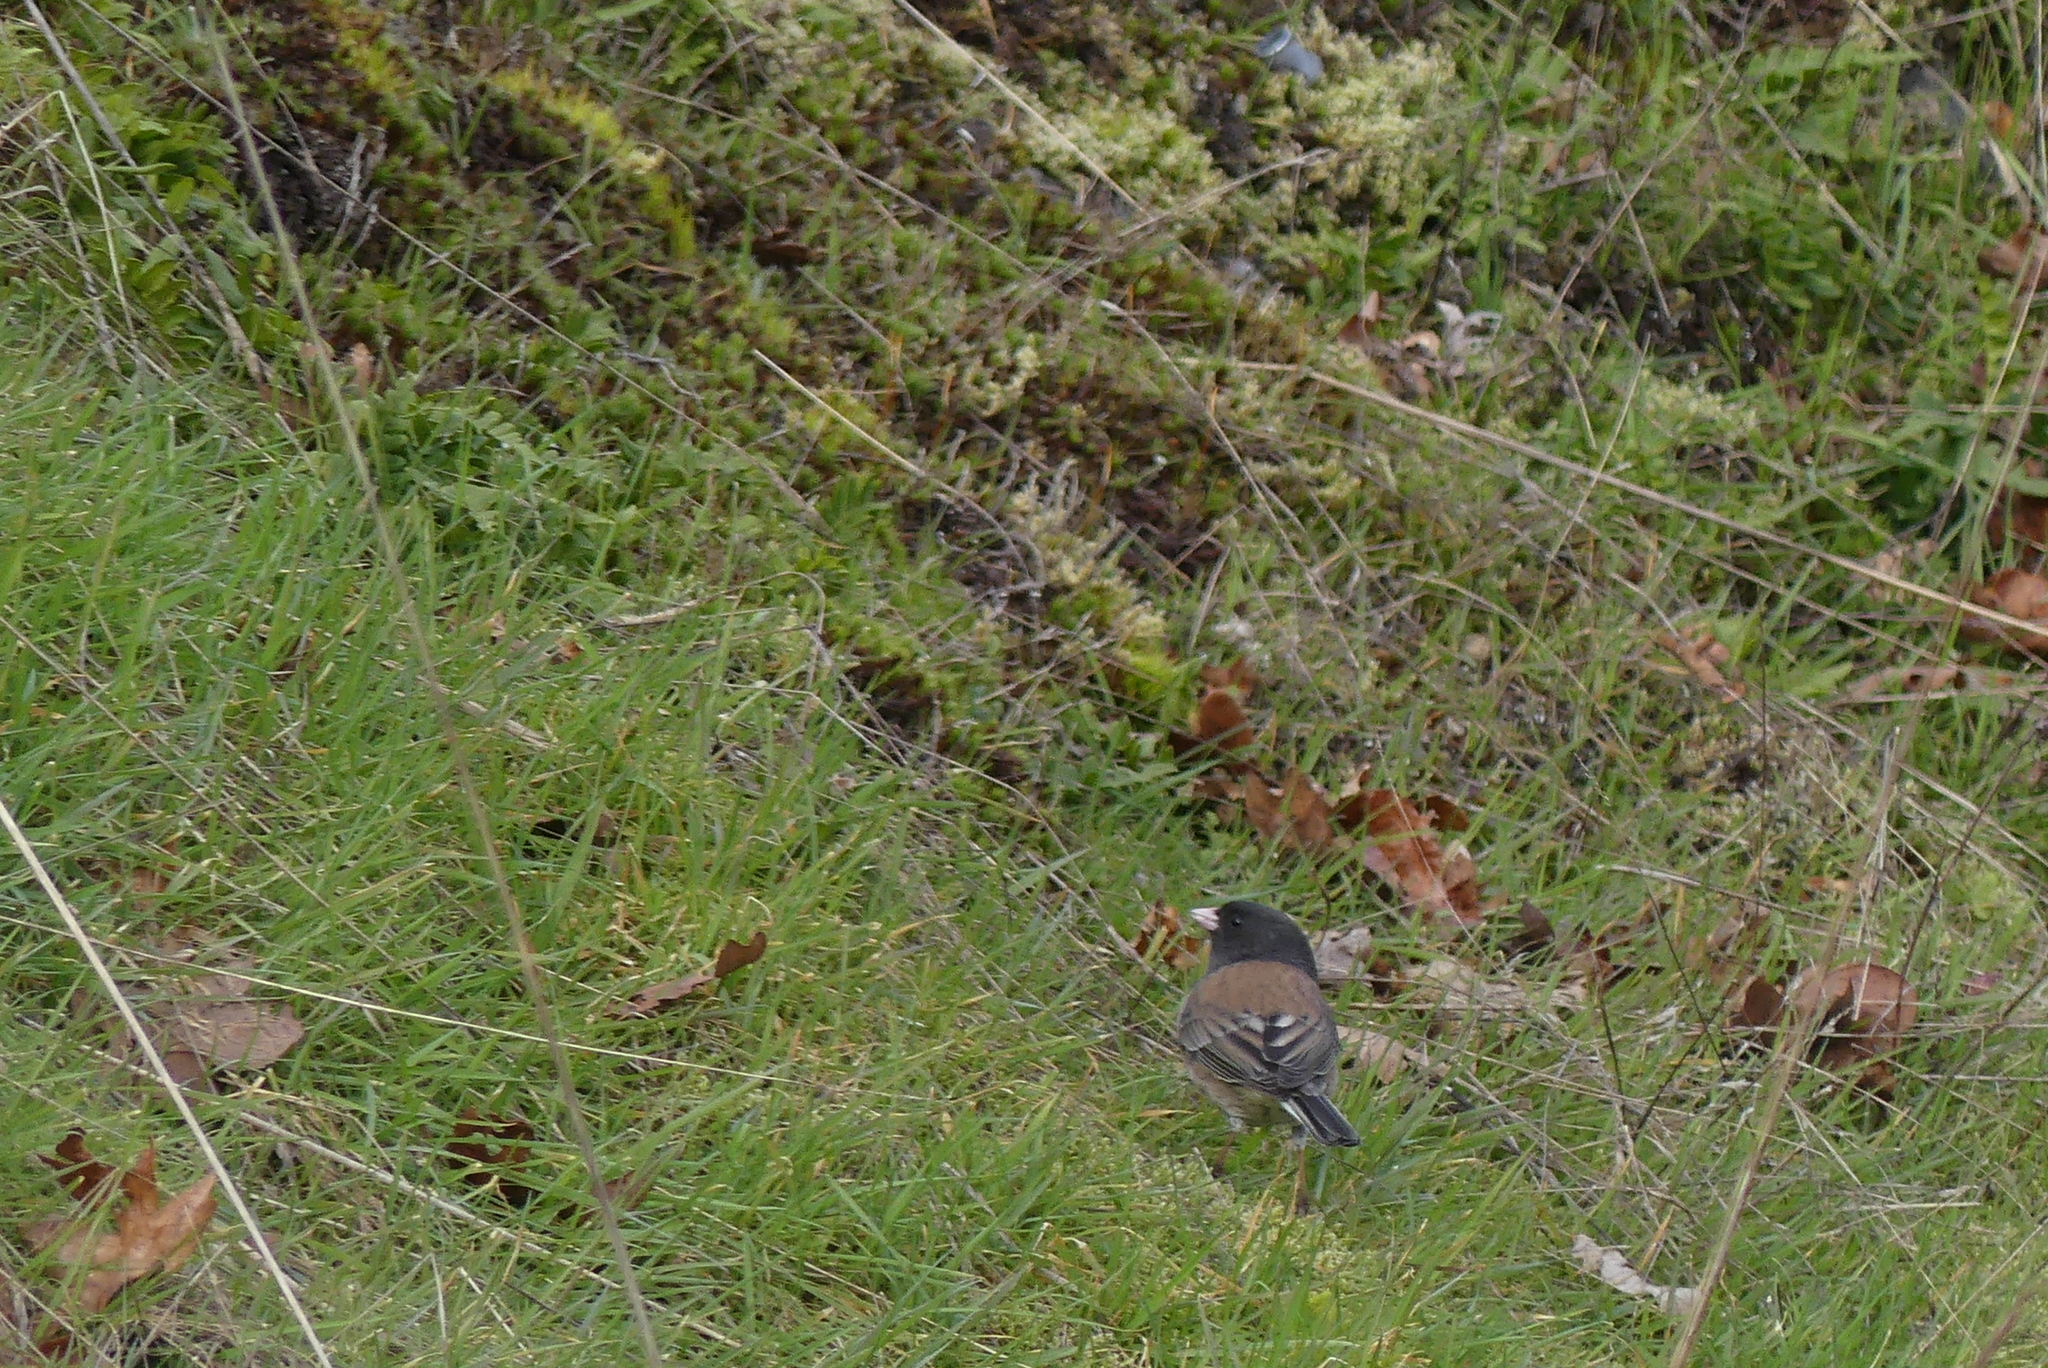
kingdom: Animalia
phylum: Chordata
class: Aves
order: Passeriformes
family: Passerellidae
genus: Junco
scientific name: Junco hyemalis
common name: Dark-eyed junco
